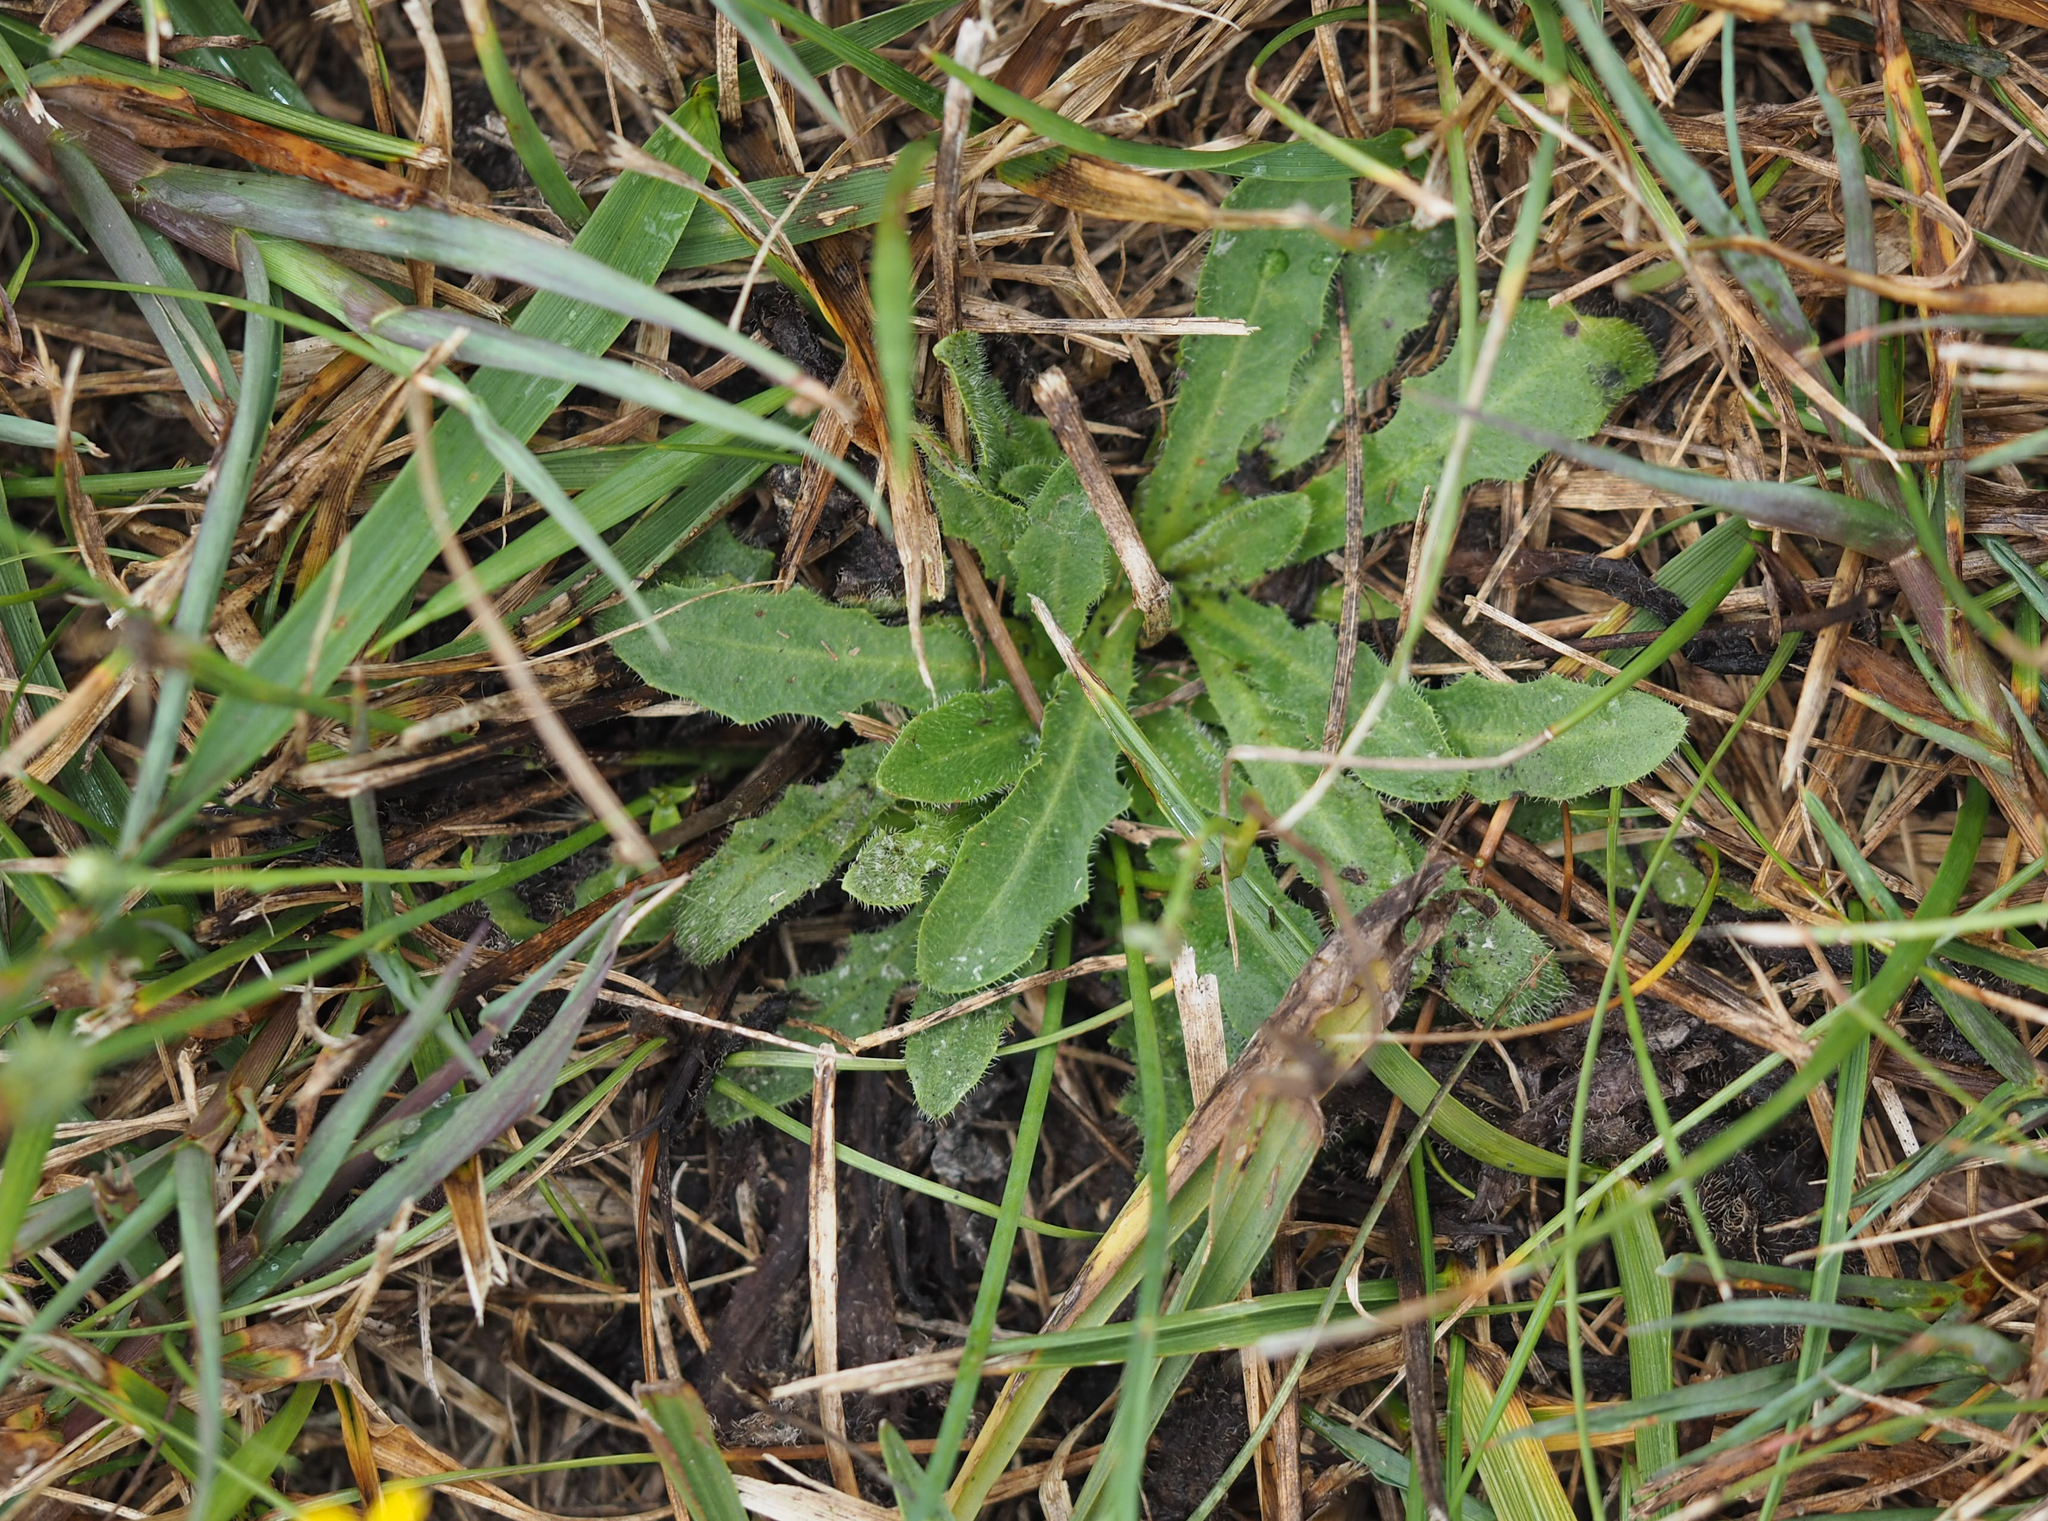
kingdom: Plantae
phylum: Tracheophyta
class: Magnoliopsida
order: Asterales
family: Asteraceae
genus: Hypochaeris
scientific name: Hypochaeris radicata
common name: Flatweed
